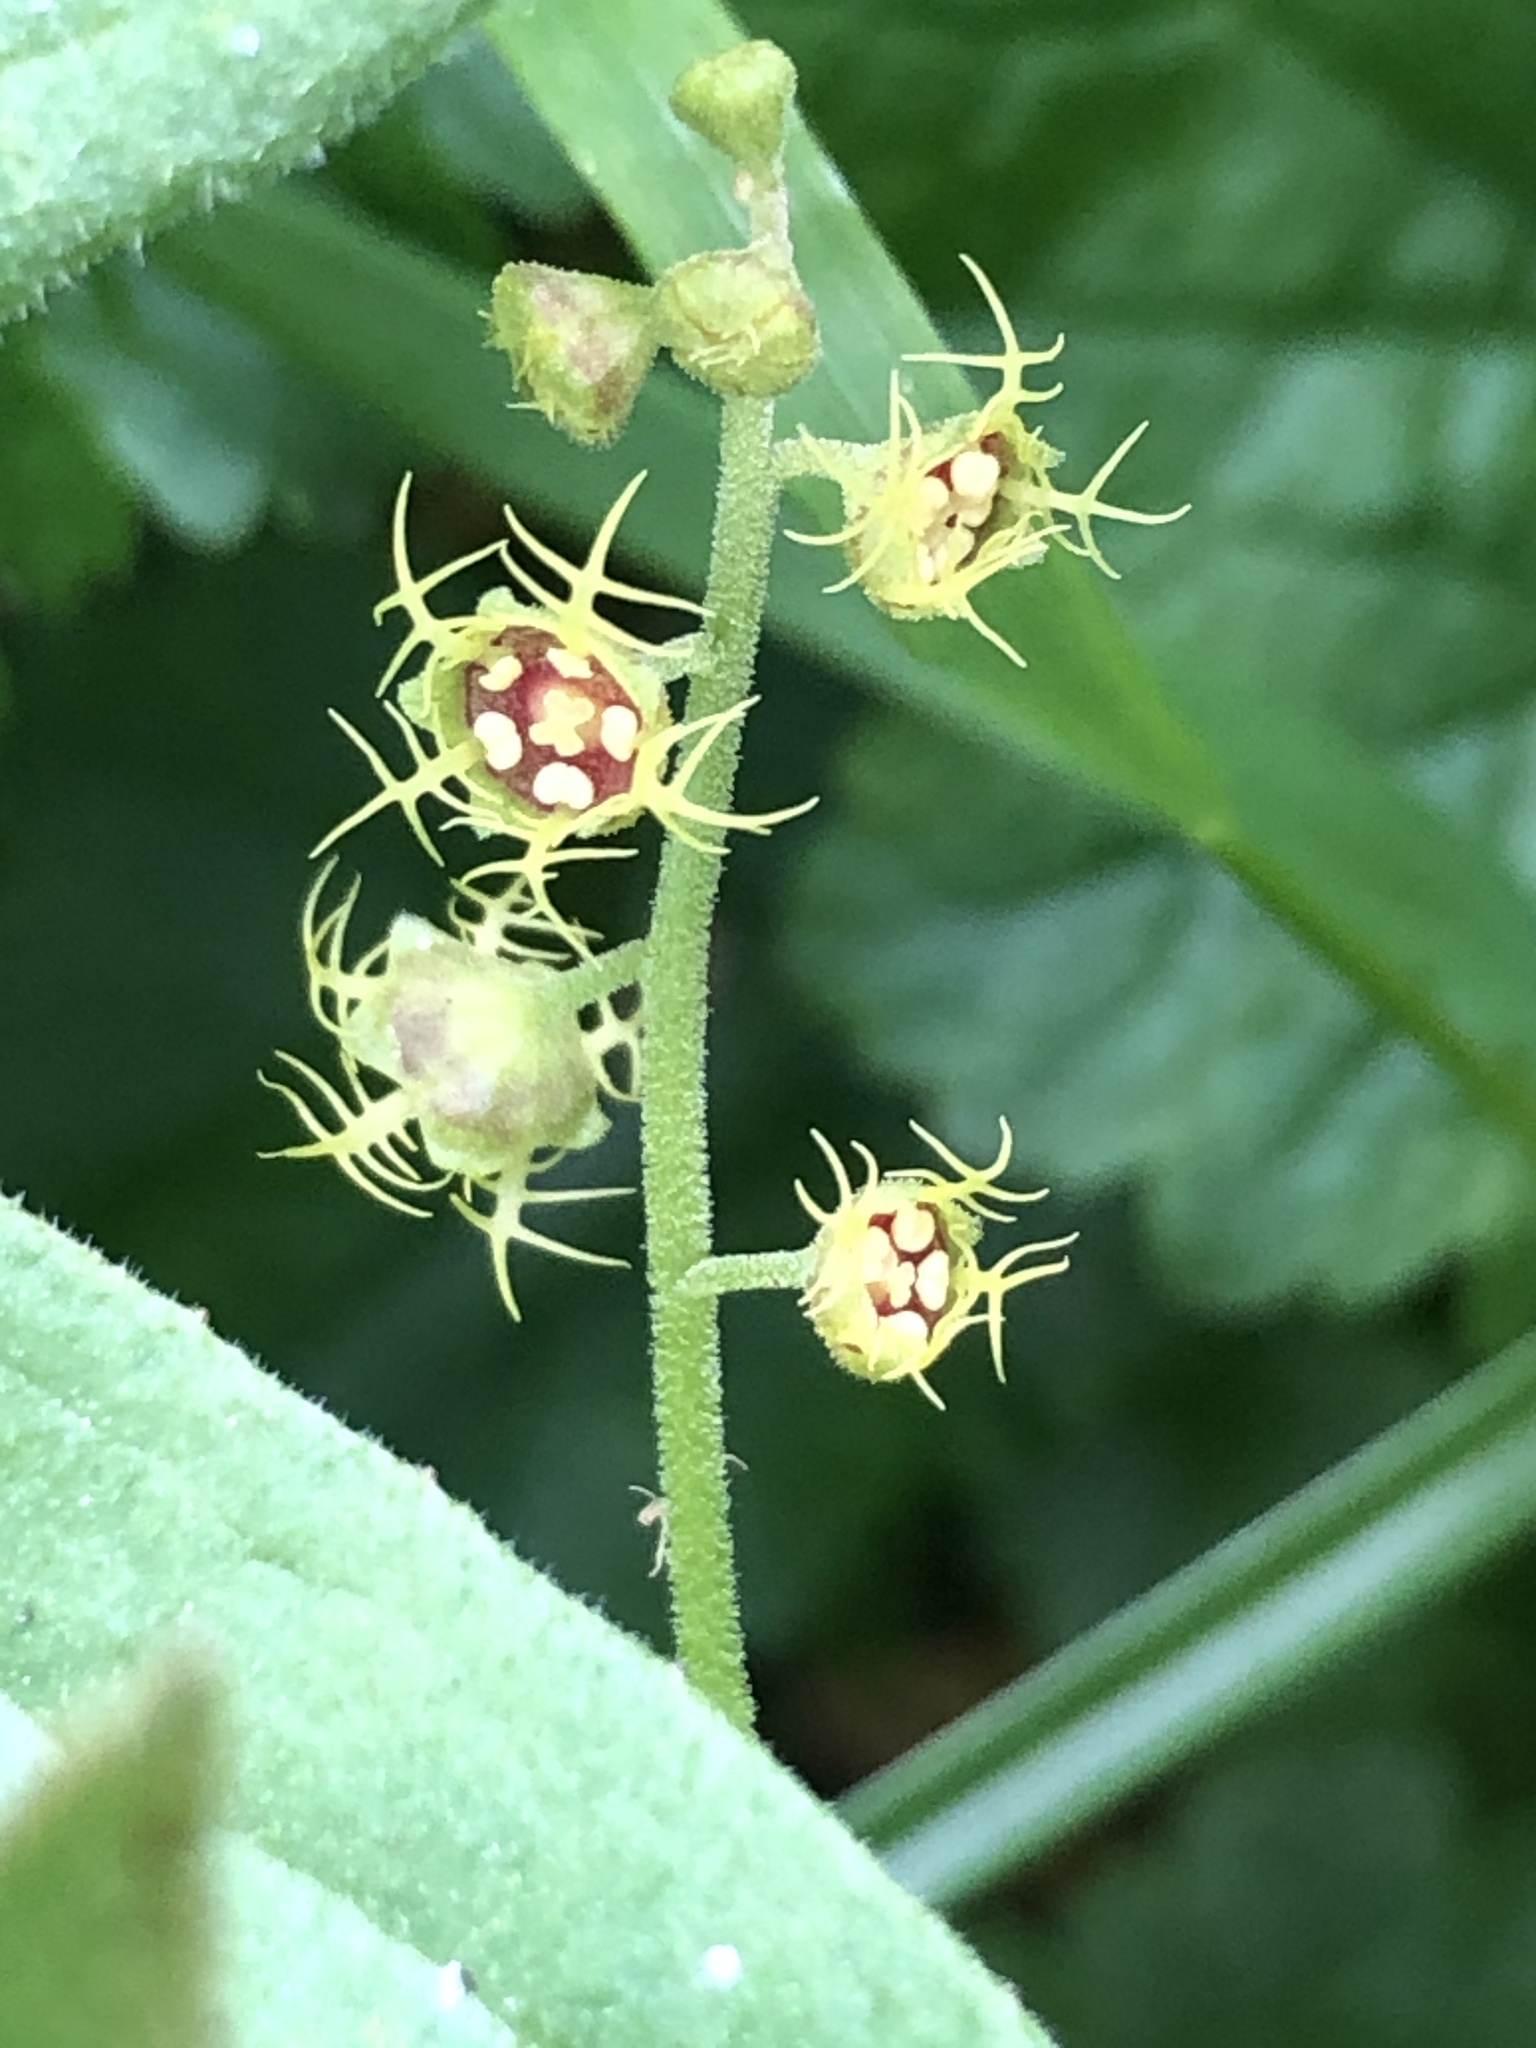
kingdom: Plantae
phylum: Tracheophyta
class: Magnoliopsida
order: Saxifragales
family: Saxifragaceae
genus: Pectiantia
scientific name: Pectiantia pentandra
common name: Alpine bishop's-cap
